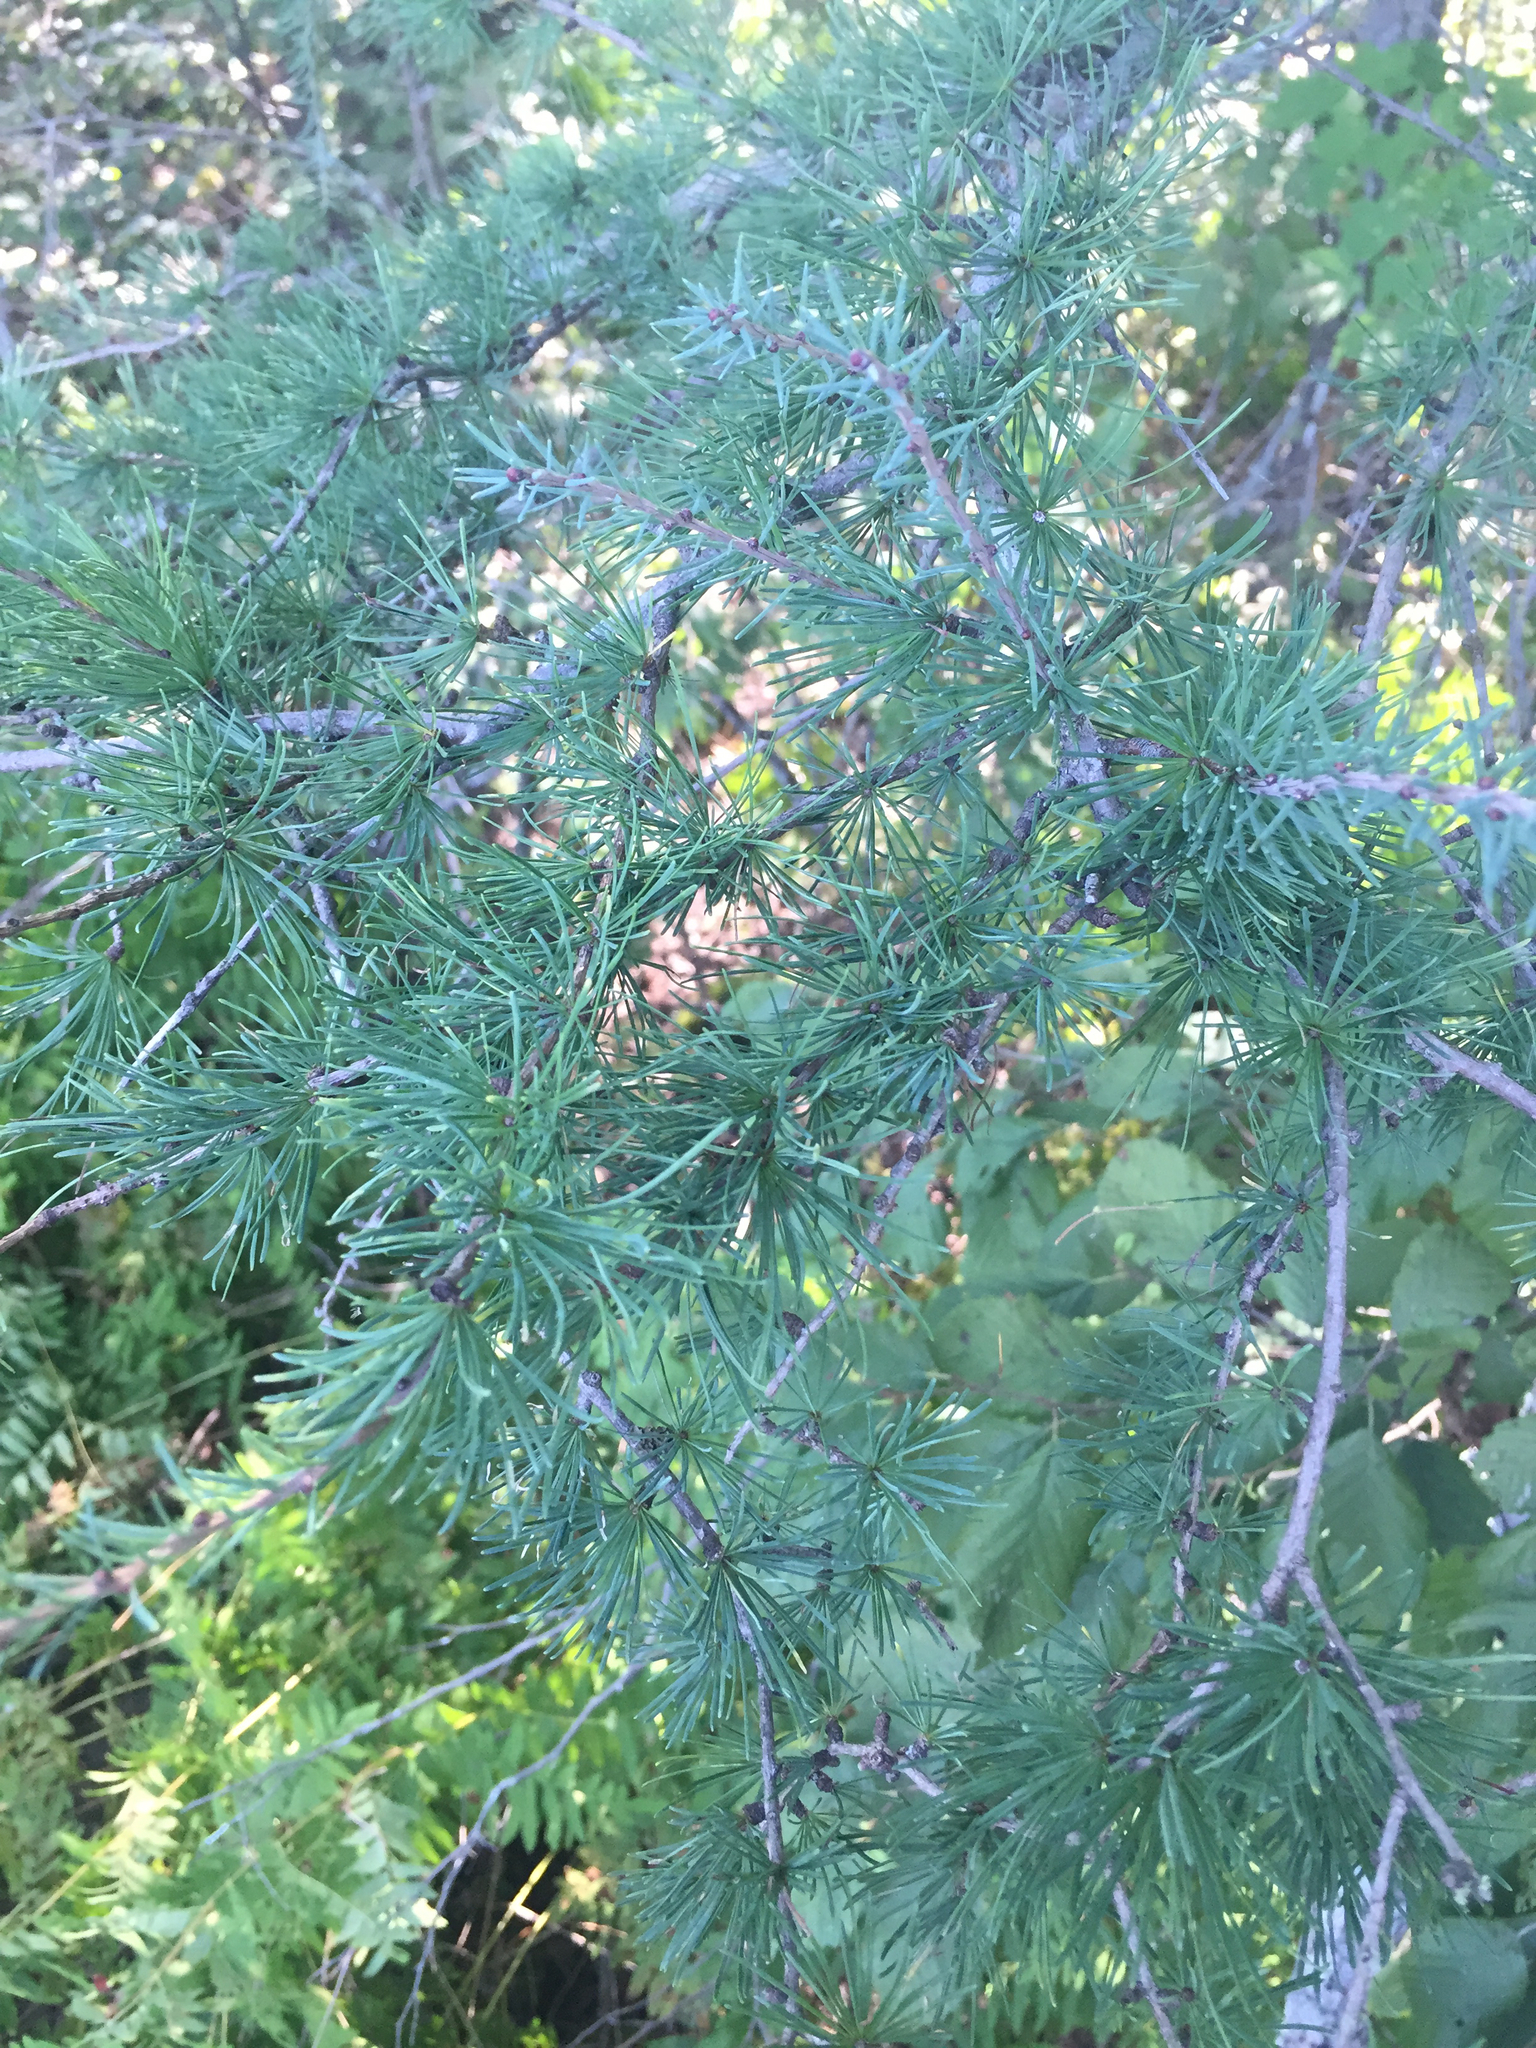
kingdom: Plantae
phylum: Tracheophyta
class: Pinopsida
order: Pinales
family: Pinaceae
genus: Larix
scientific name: Larix laricina
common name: American larch
